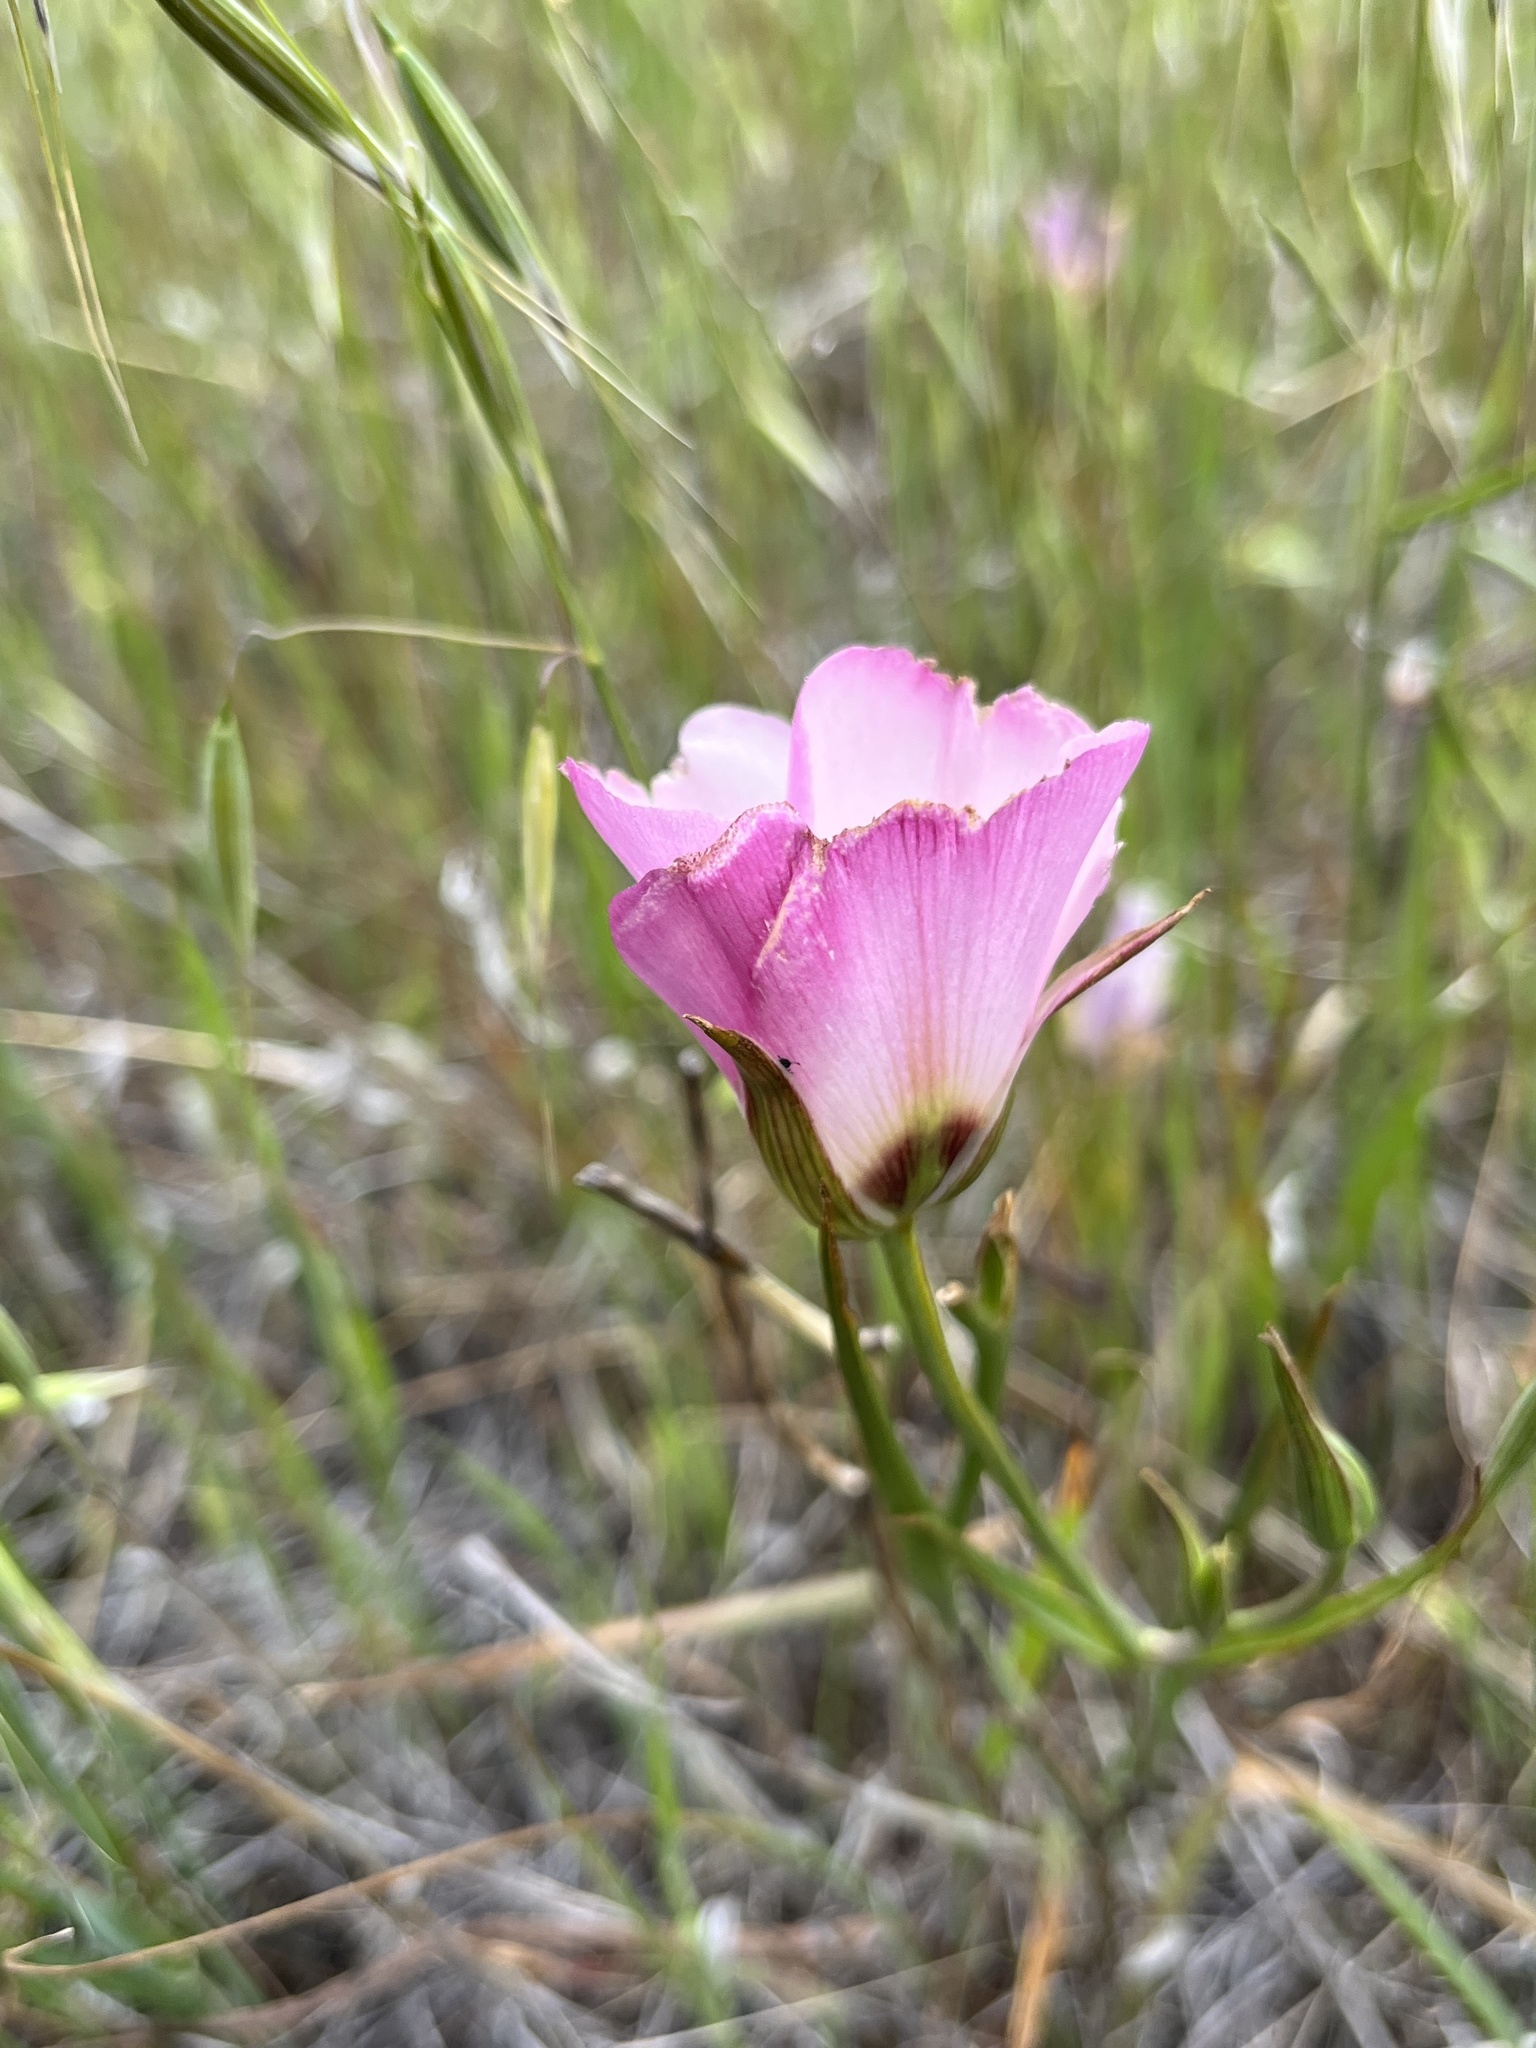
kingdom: Plantae
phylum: Tracheophyta
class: Liliopsida
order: Liliales
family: Liliaceae
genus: Calochortus
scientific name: Calochortus catalinae
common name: Catalina mariposa-lily
